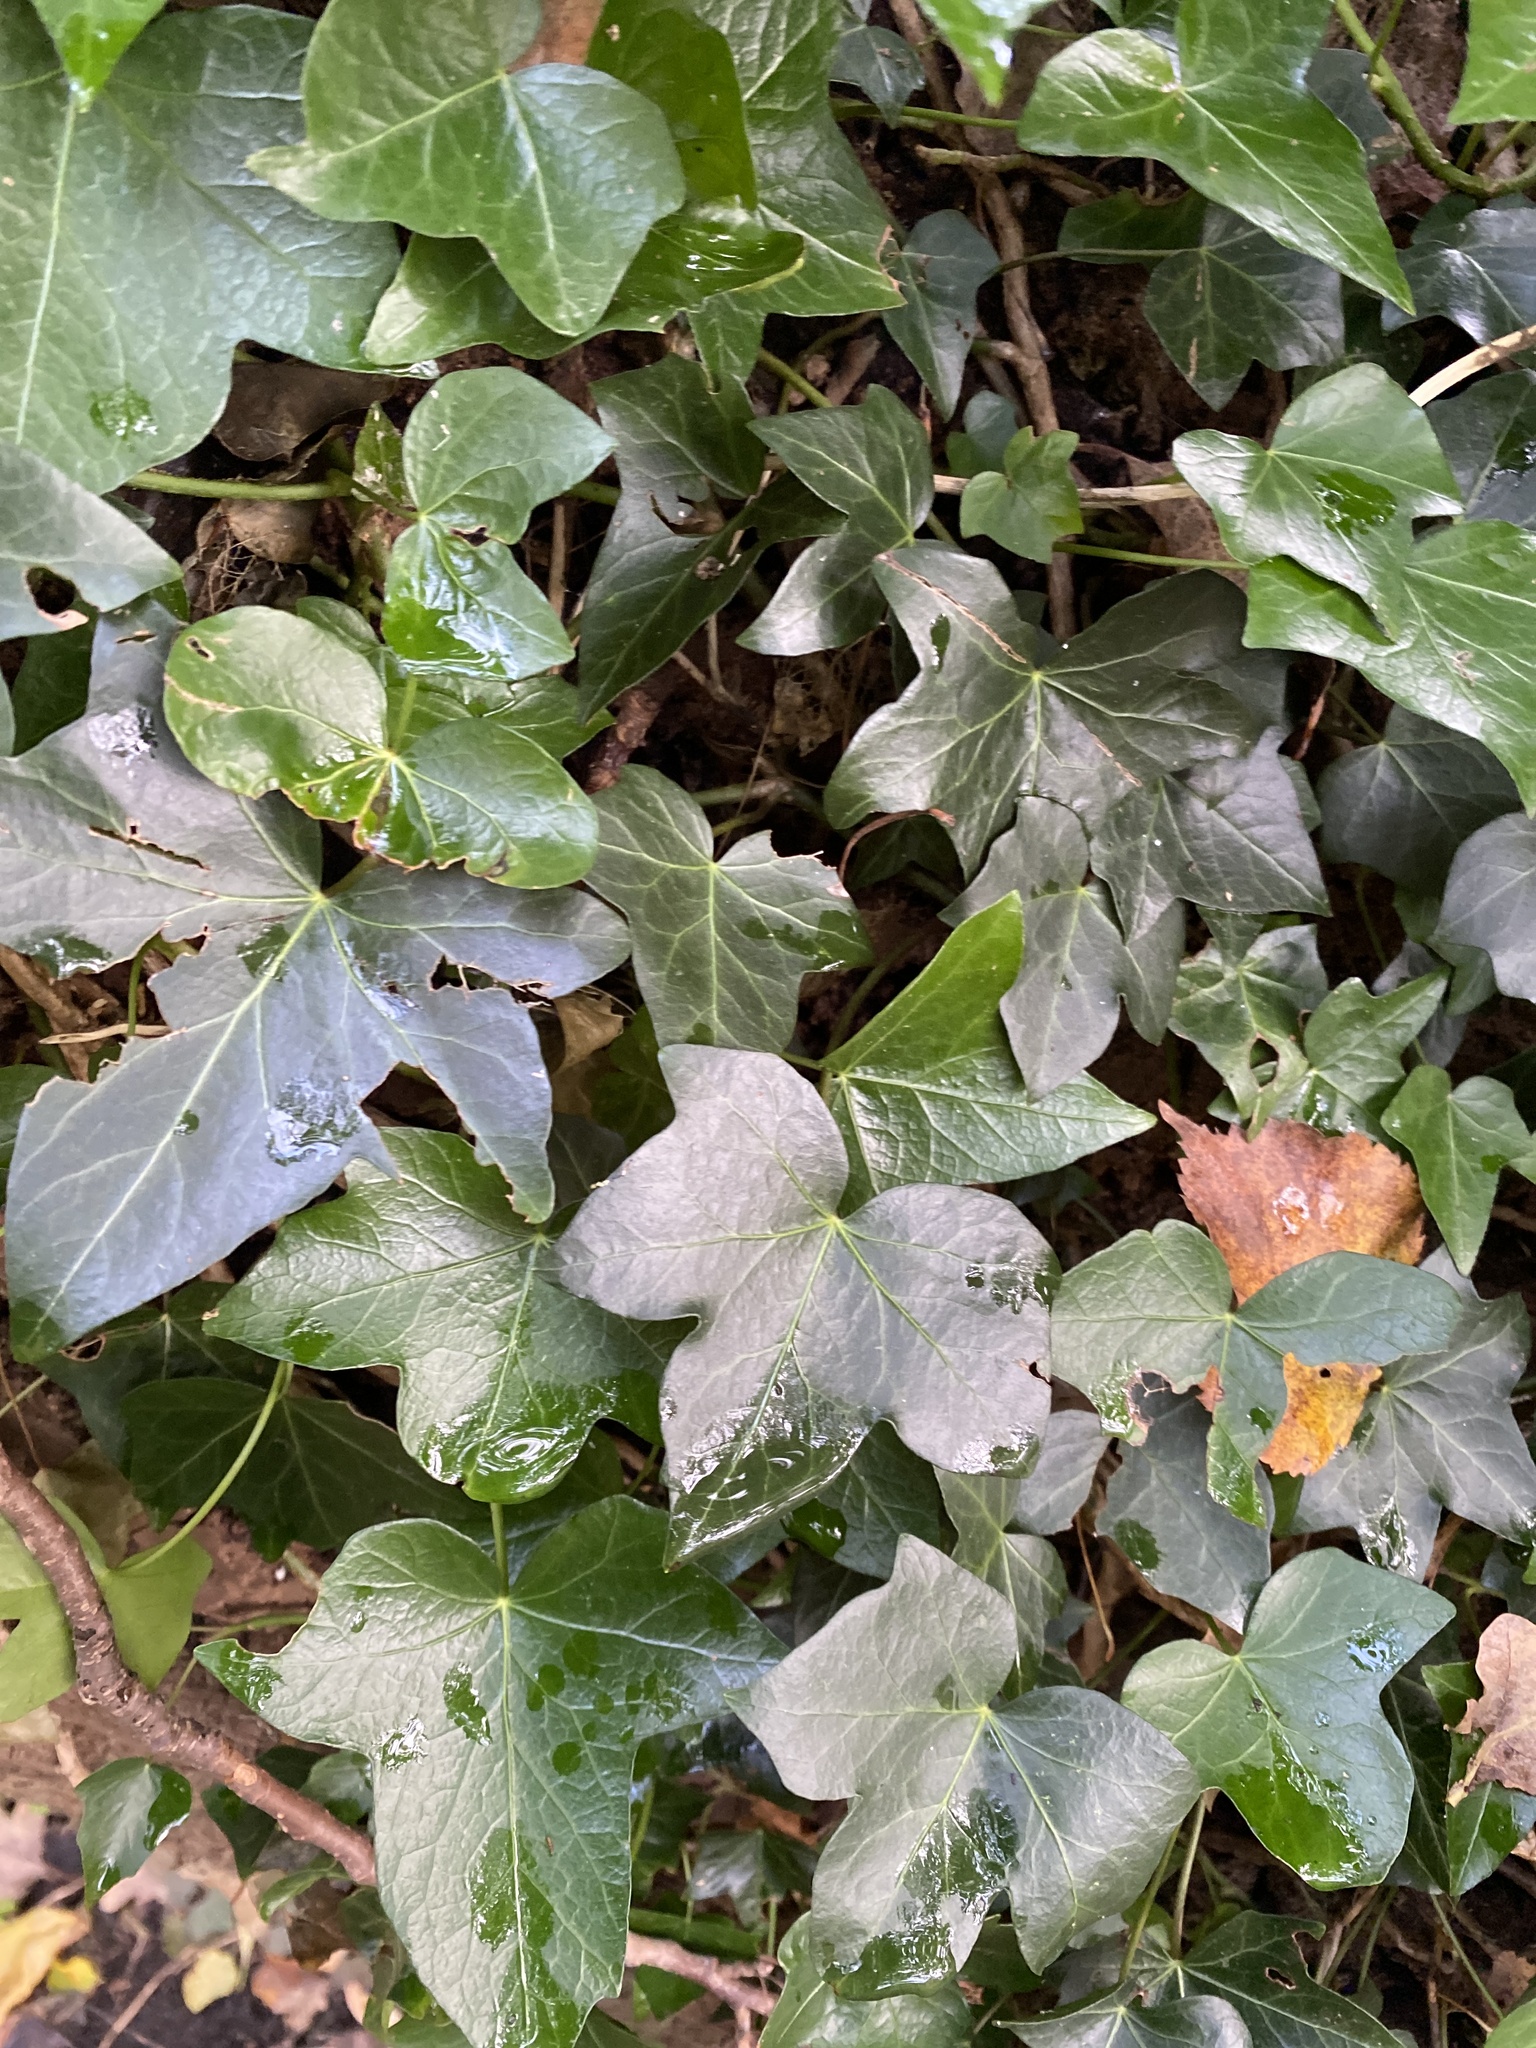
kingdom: Plantae
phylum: Tracheophyta
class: Magnoliopsida
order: Apiales
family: Araliaceae
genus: Hedera
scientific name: Hedera helix
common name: Ivy
